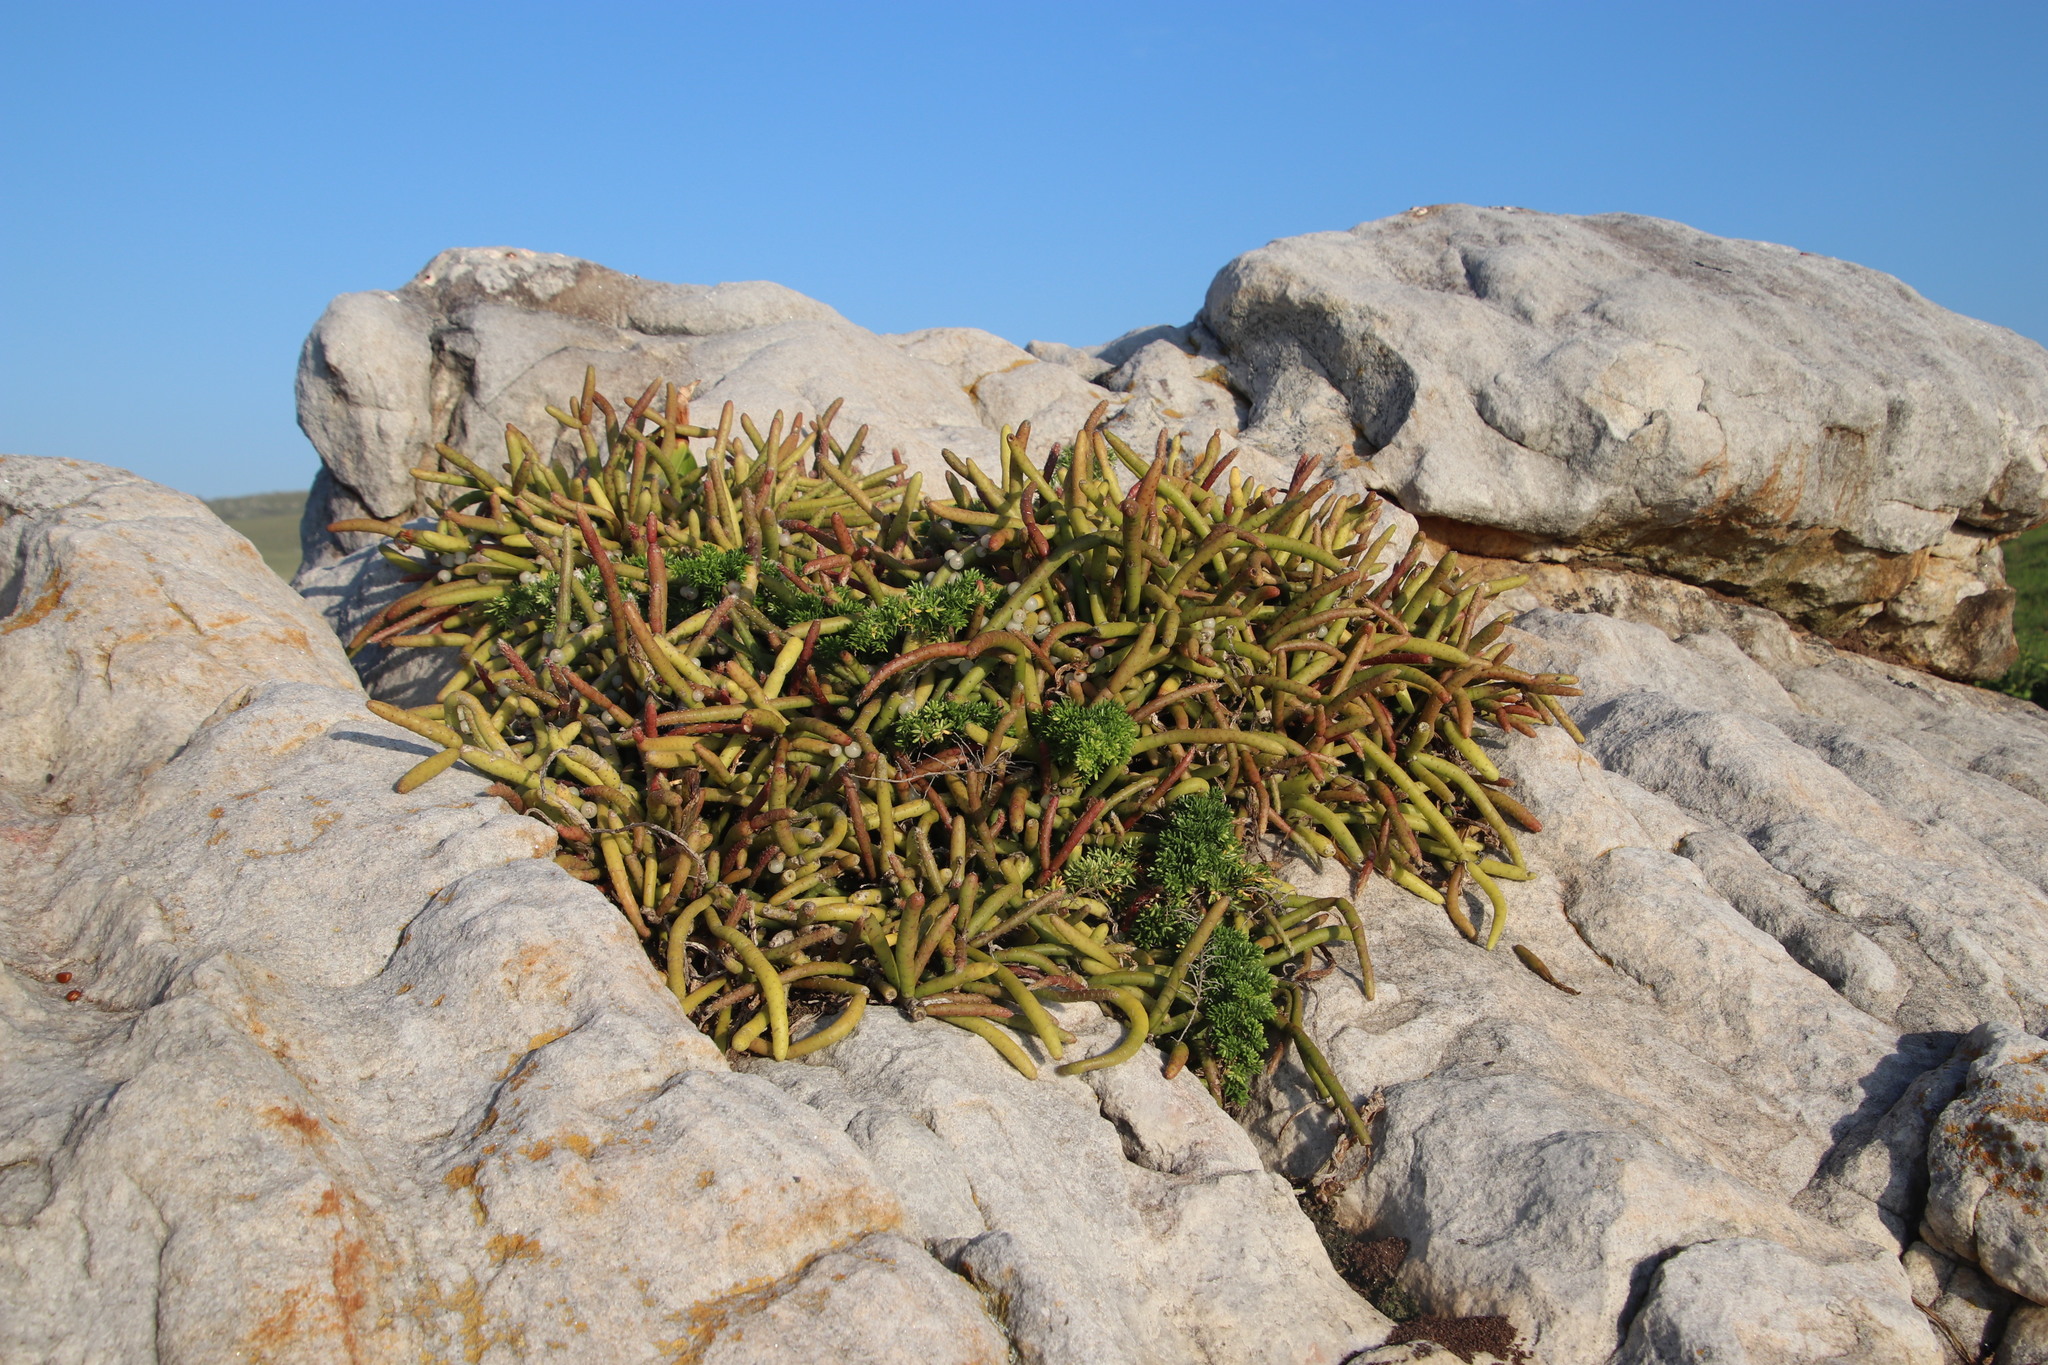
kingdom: Plantae
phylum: Tracheophyta
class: Magnoliopsida
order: Caryophyllales
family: Cactaceae
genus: Rhipsalis
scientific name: Rhipsalis baccifera
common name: Mistletoe cactus
